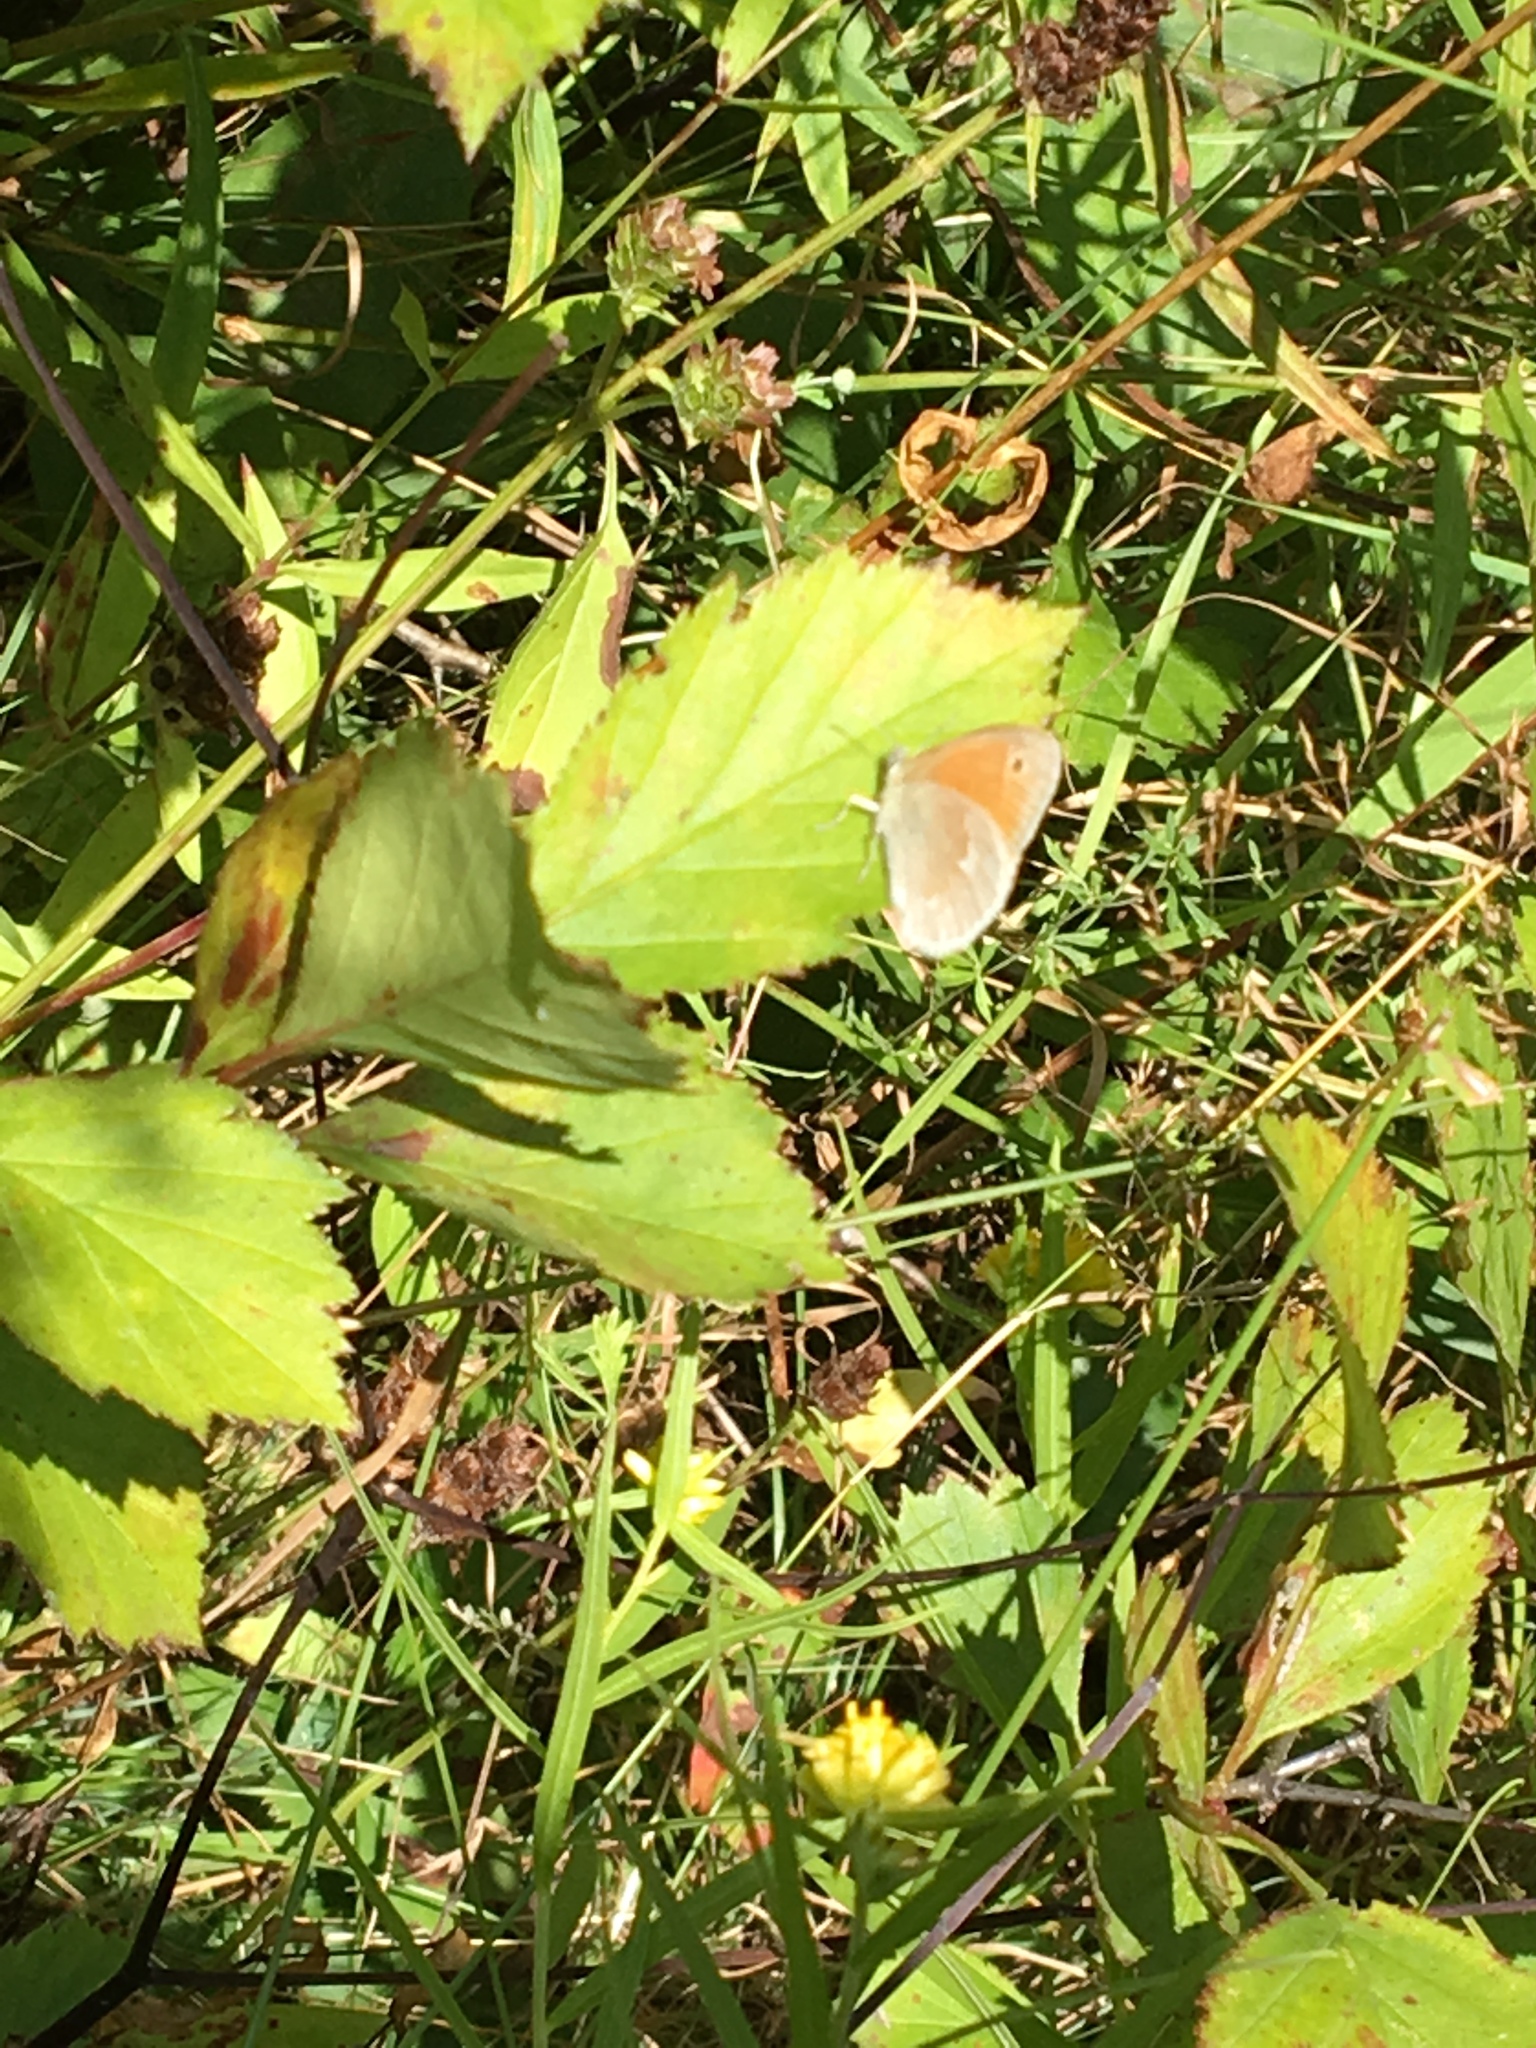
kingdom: Animalia
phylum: Arthropoda
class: Insecta
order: Lepidoptera
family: Nymphalidae
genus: Coenonympha
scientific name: Coenonympha california
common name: Common ringlet
